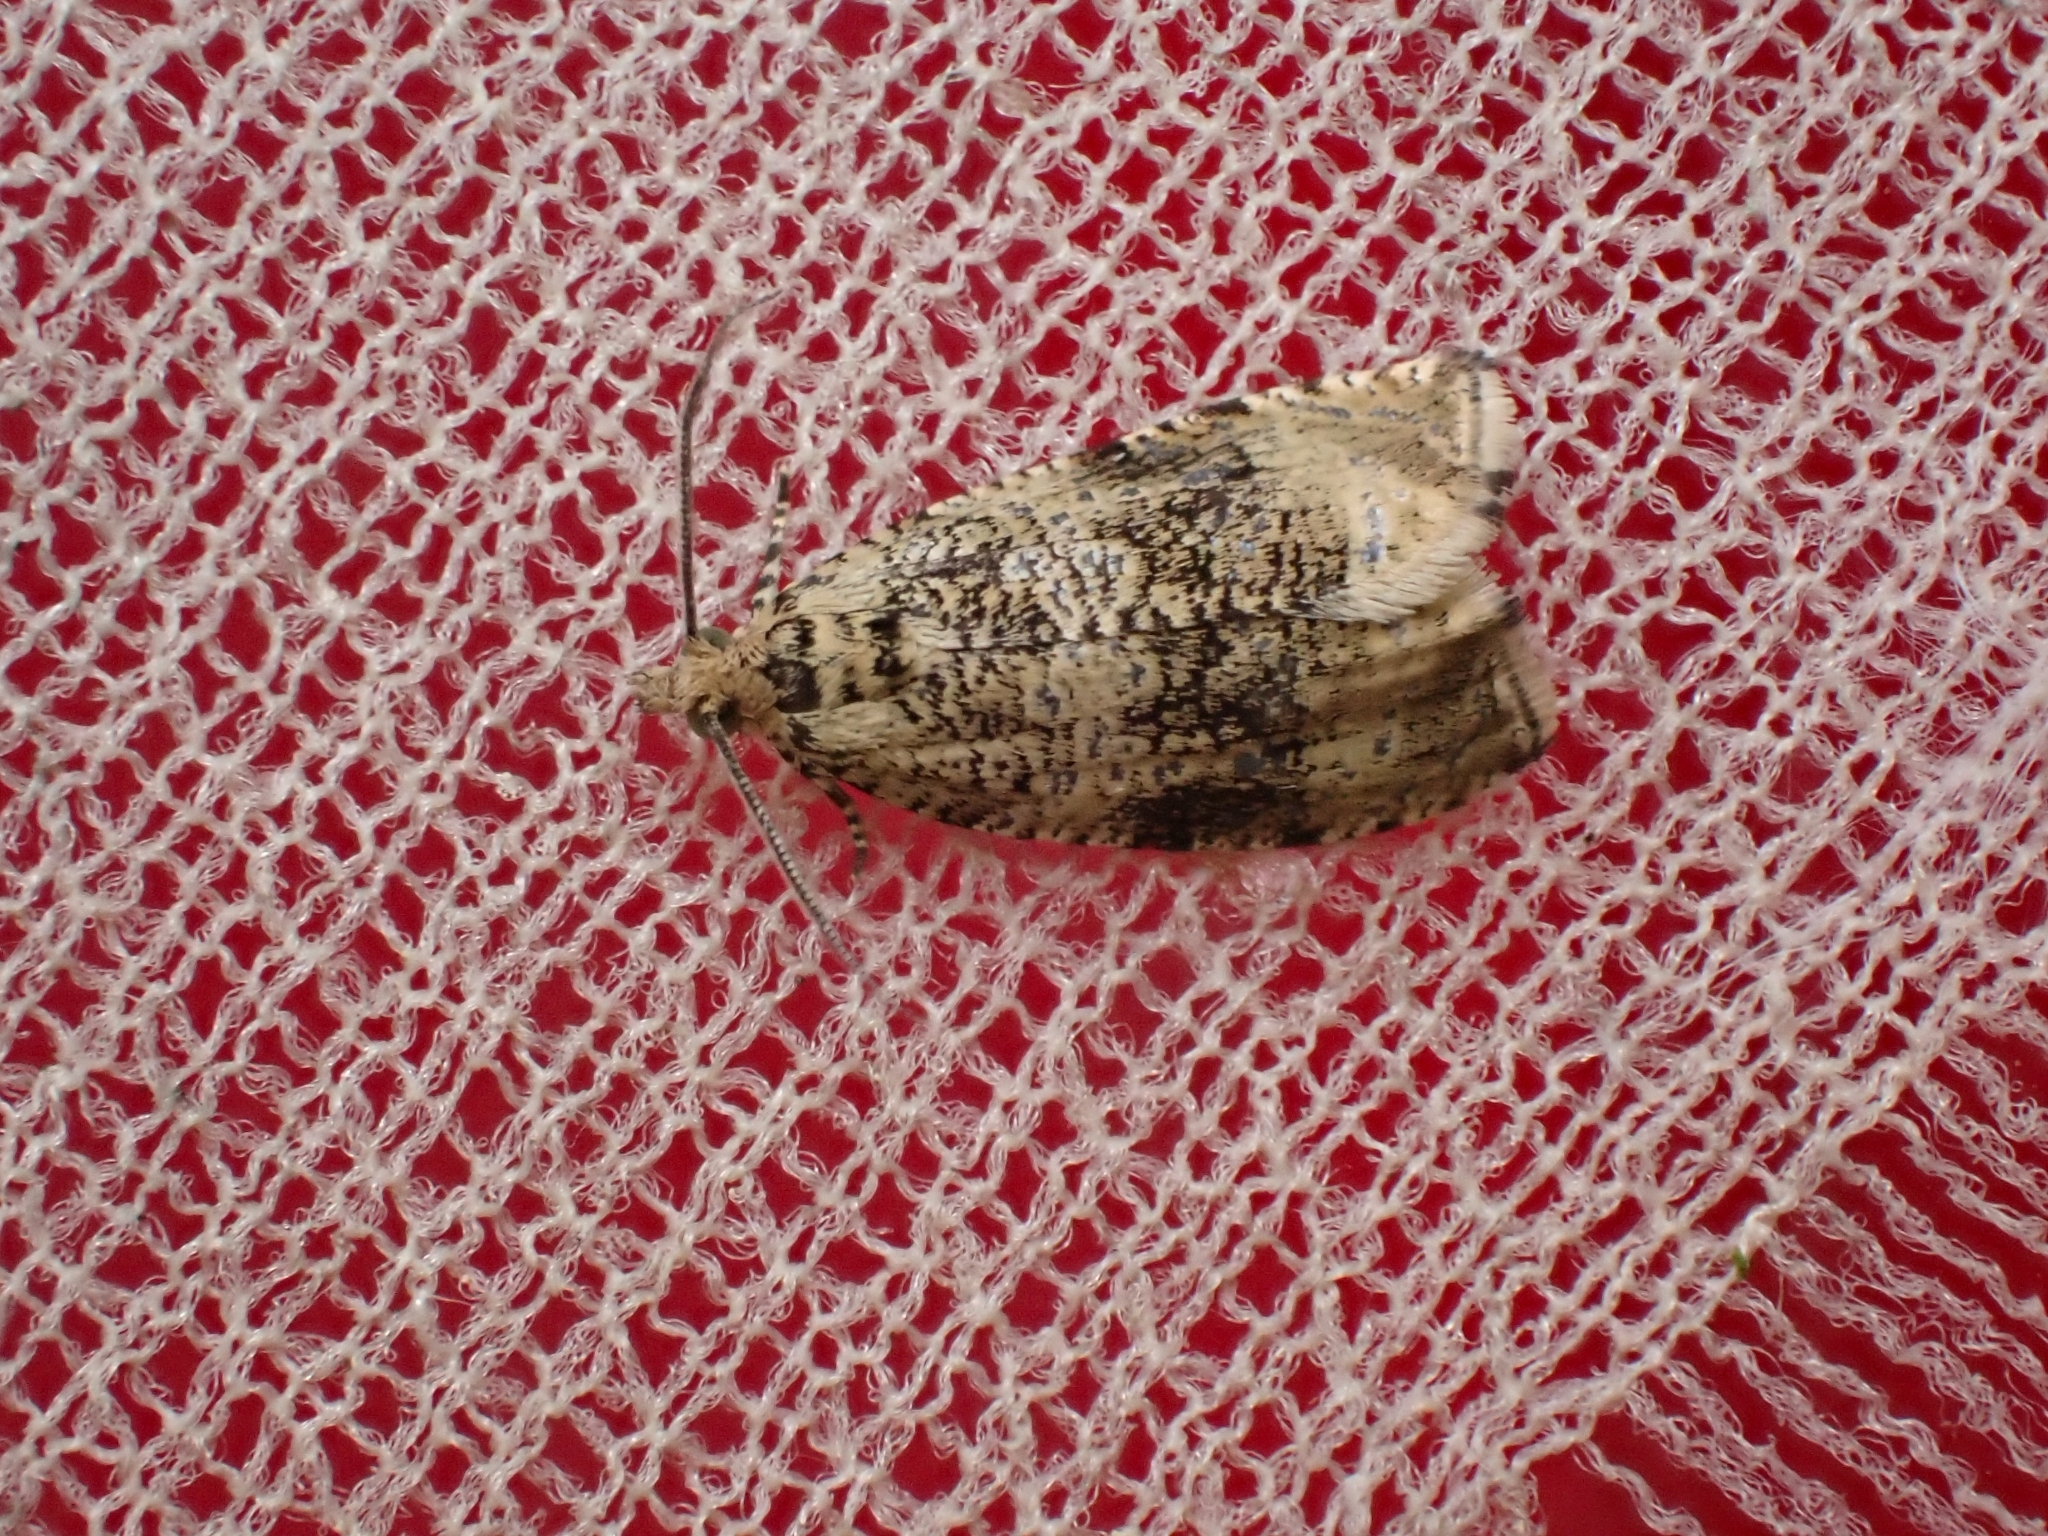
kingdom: Animalia
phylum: Arthropoda
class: Insecta
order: Lepidoptera
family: Tortricidae
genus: Syricoris
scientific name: Syricoris lacunana
